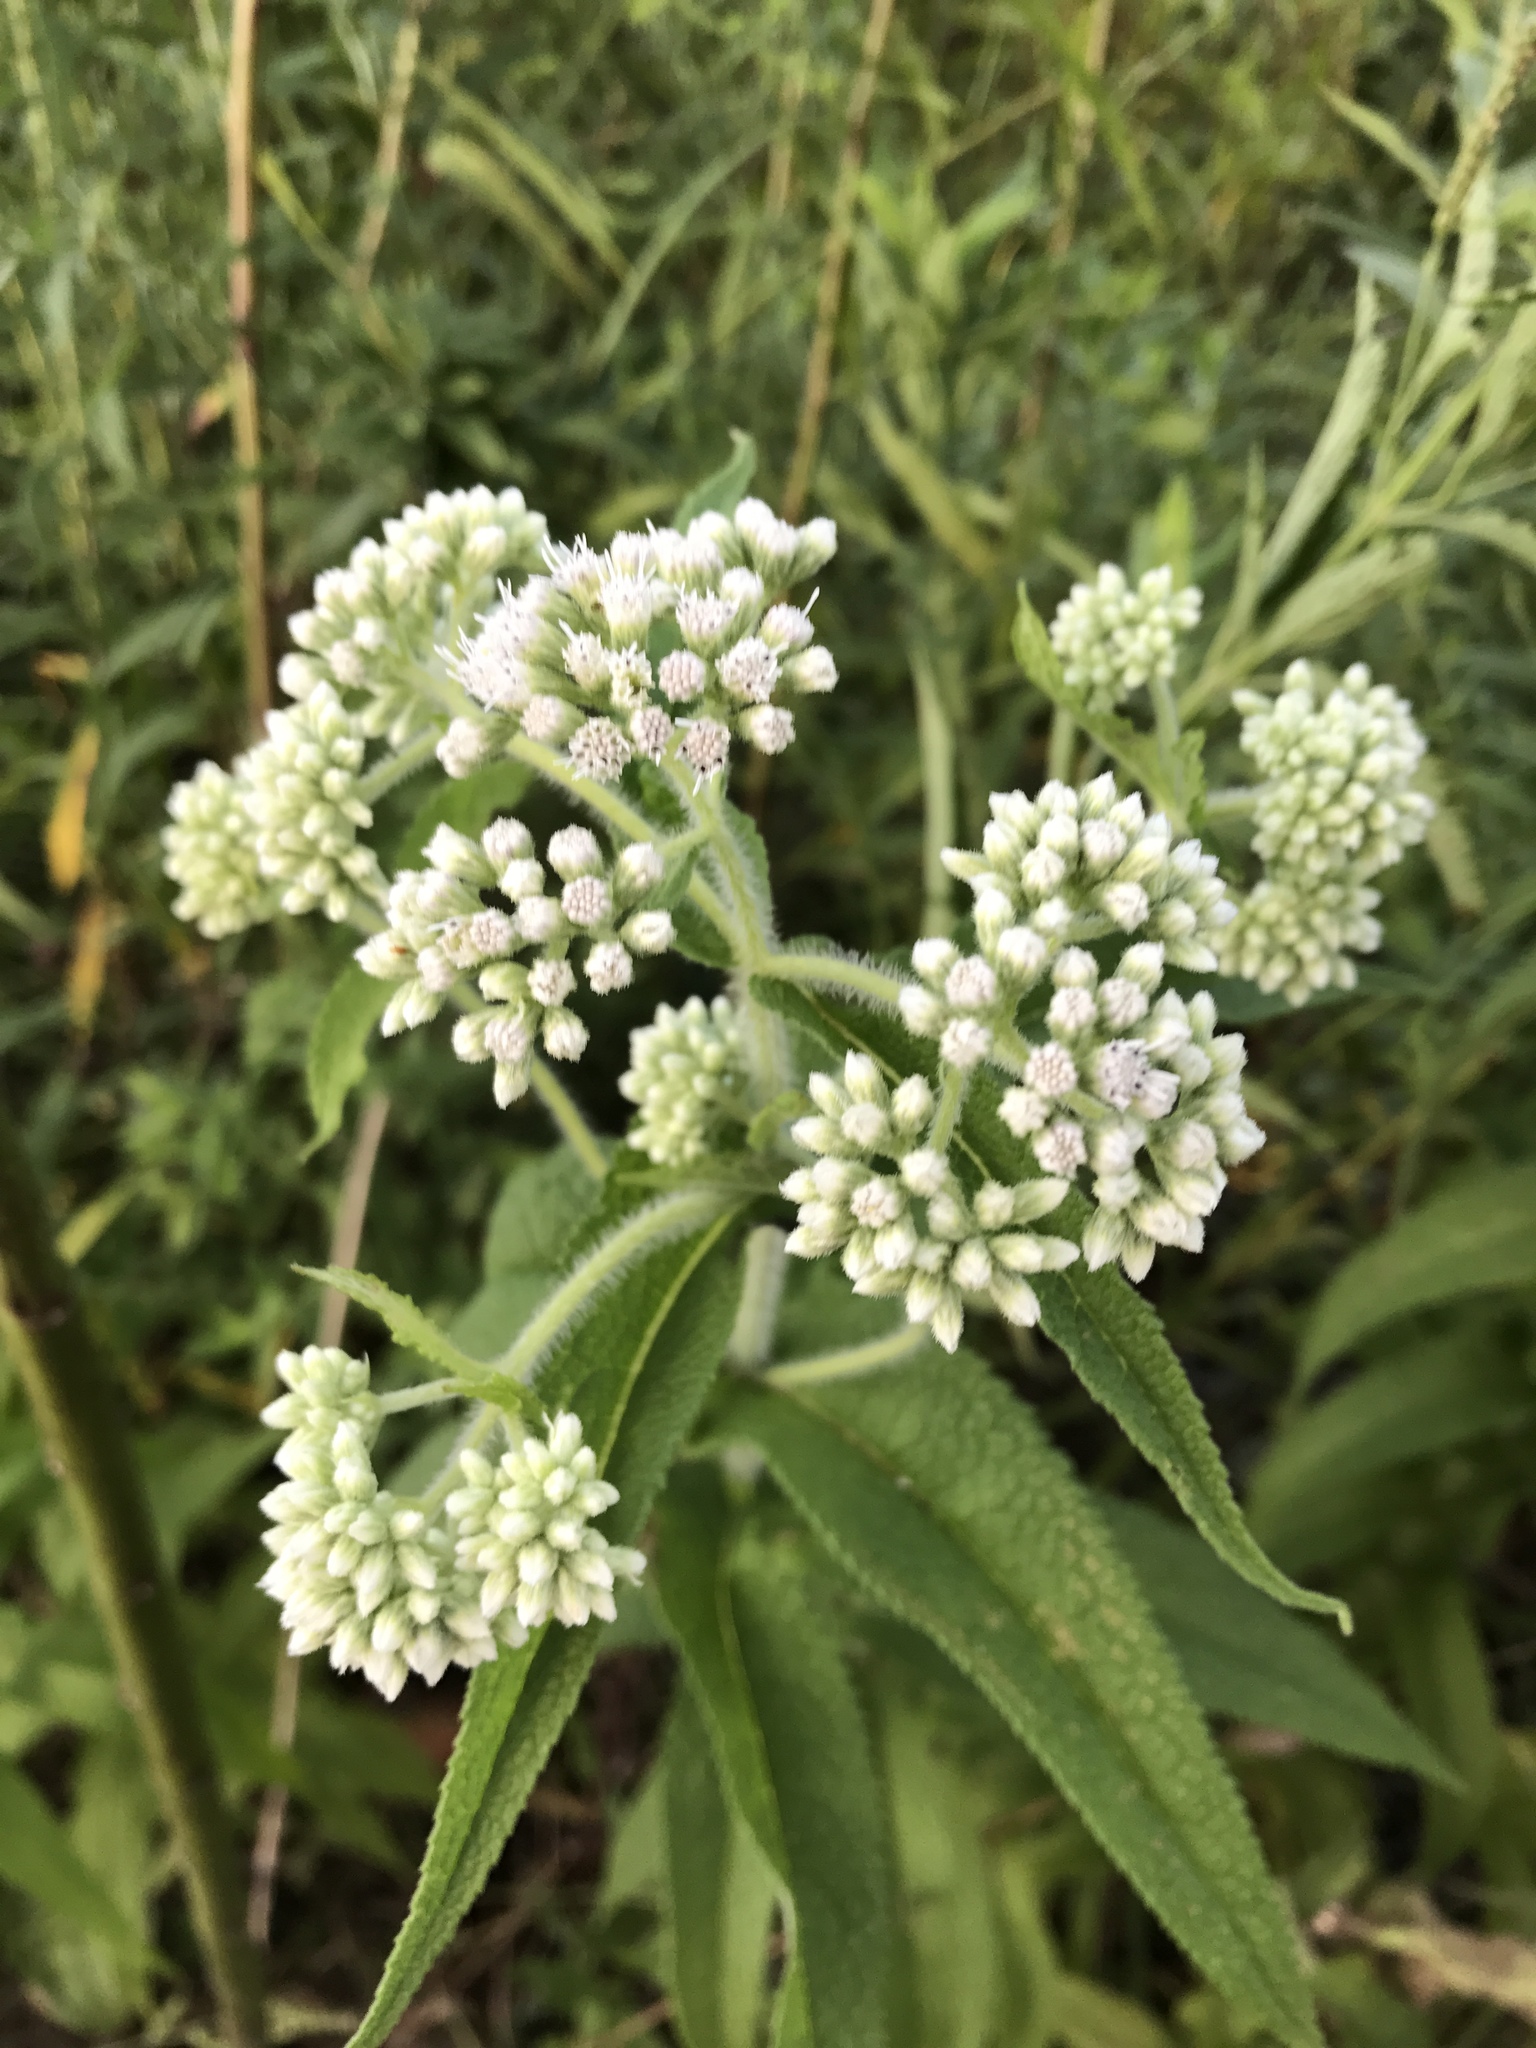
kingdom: Plantae
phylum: Tracheophyta
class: Magnoliopsida
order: Asterales
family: Asteraceae
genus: Eupatorium
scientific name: Eupatorium perfoliatum
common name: Boneset
